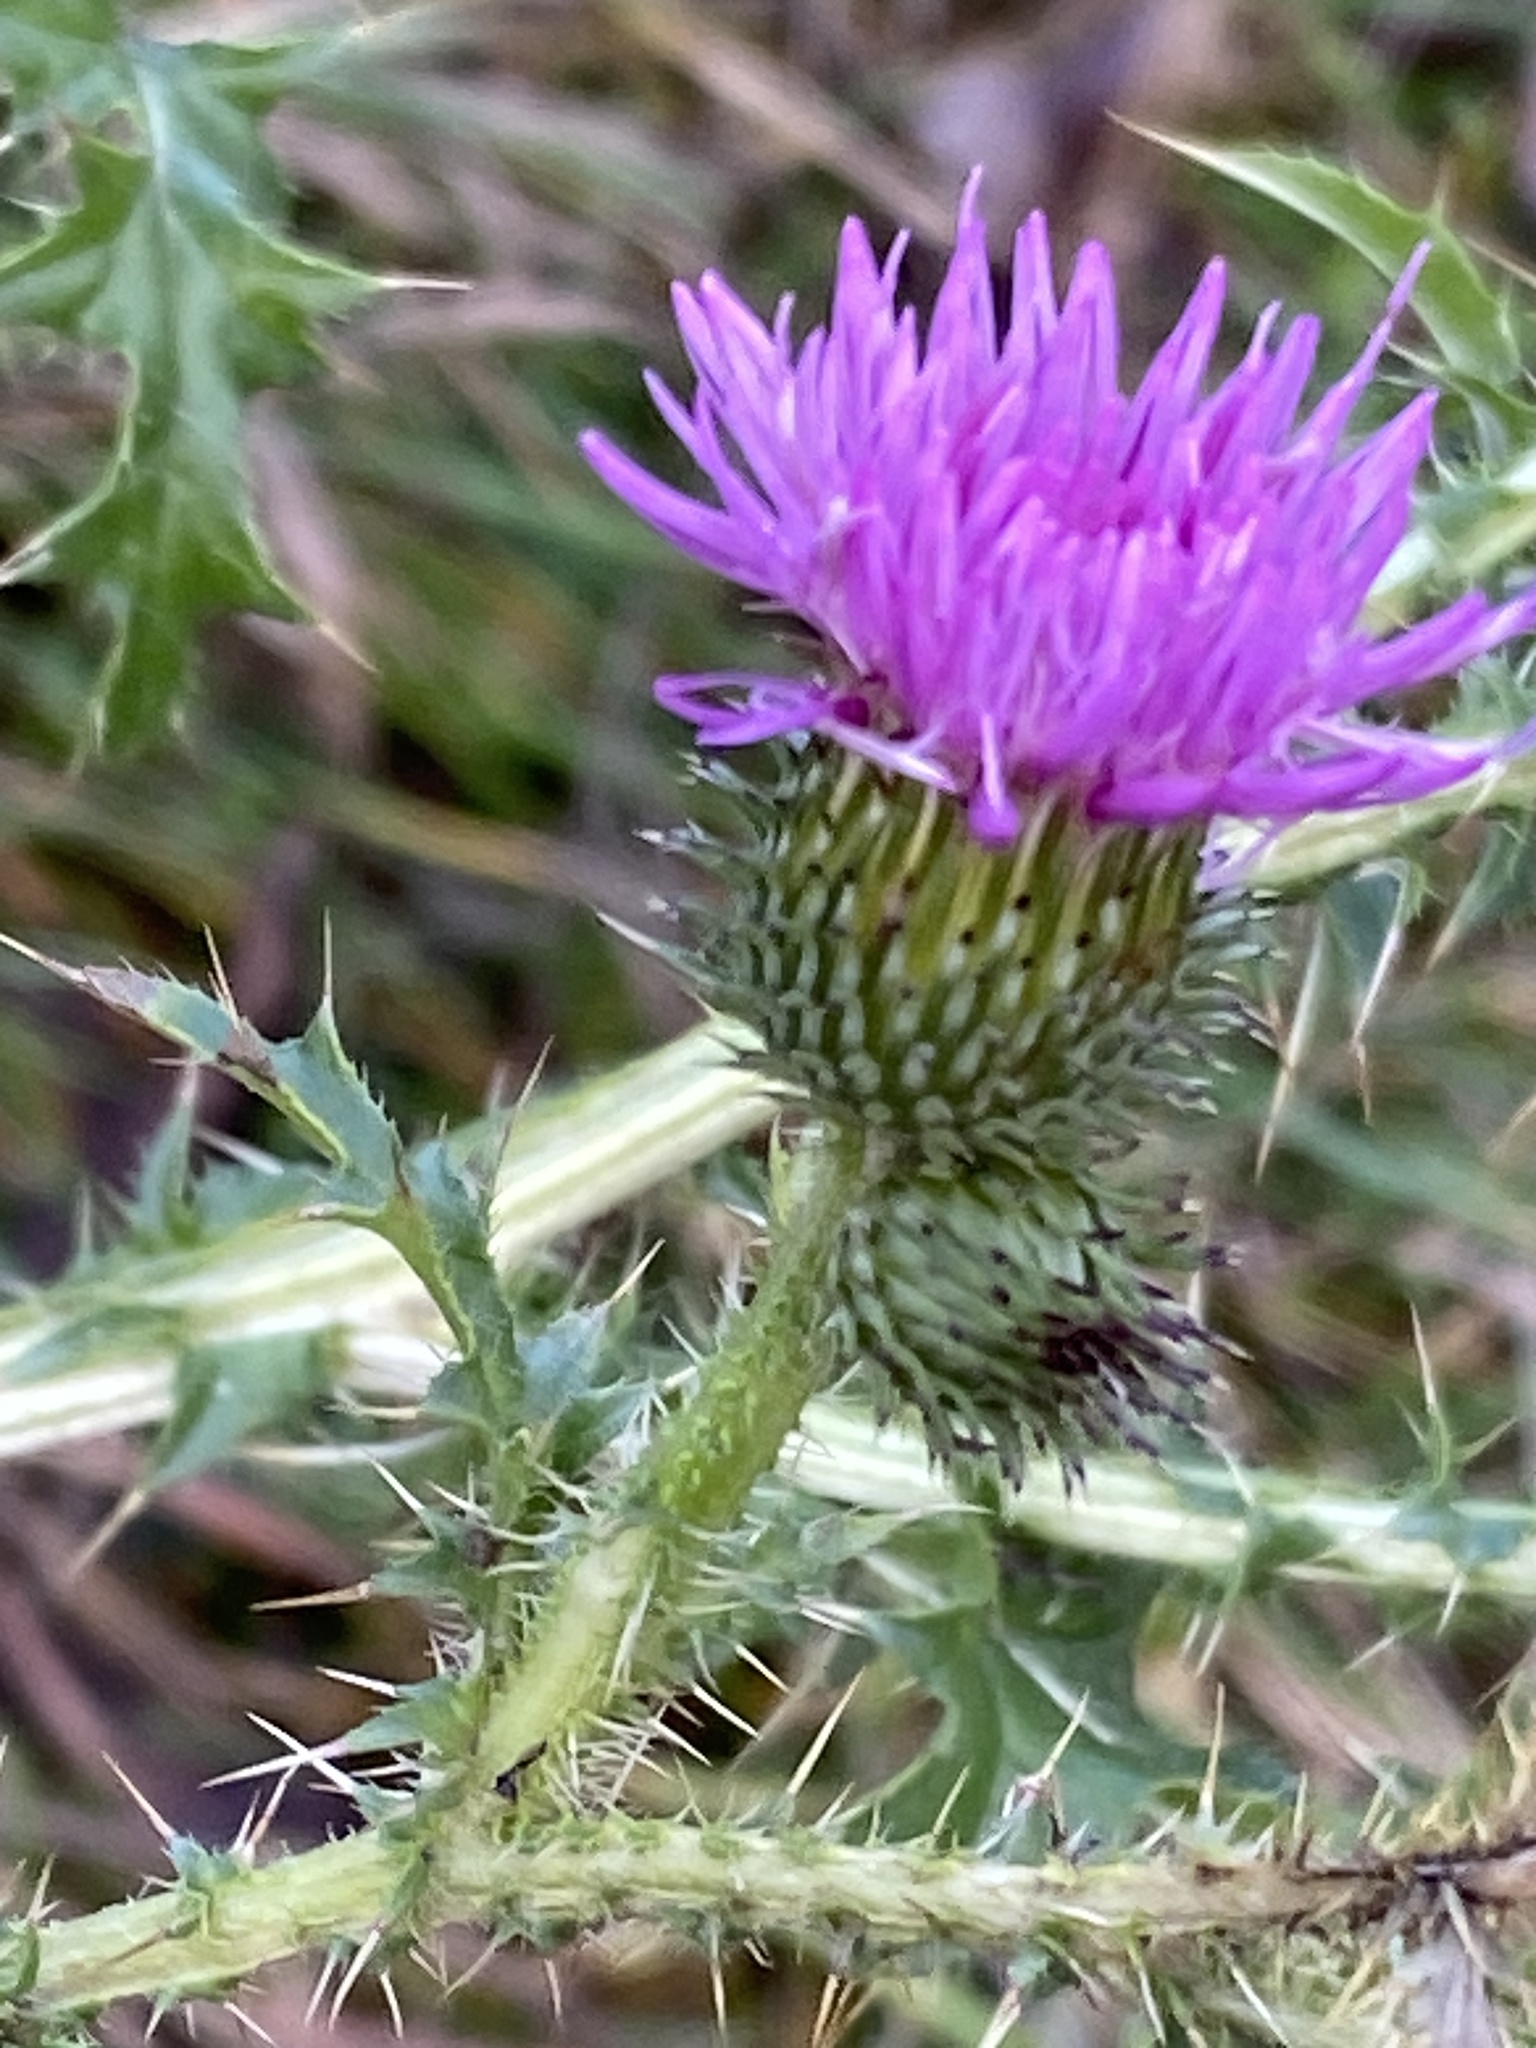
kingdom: Plantae
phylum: Tracheophyta
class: Magnoliopsida
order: Asterales
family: Asteraceae
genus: Carduus
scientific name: Carduus acanthoides
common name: Plumeless thistle
